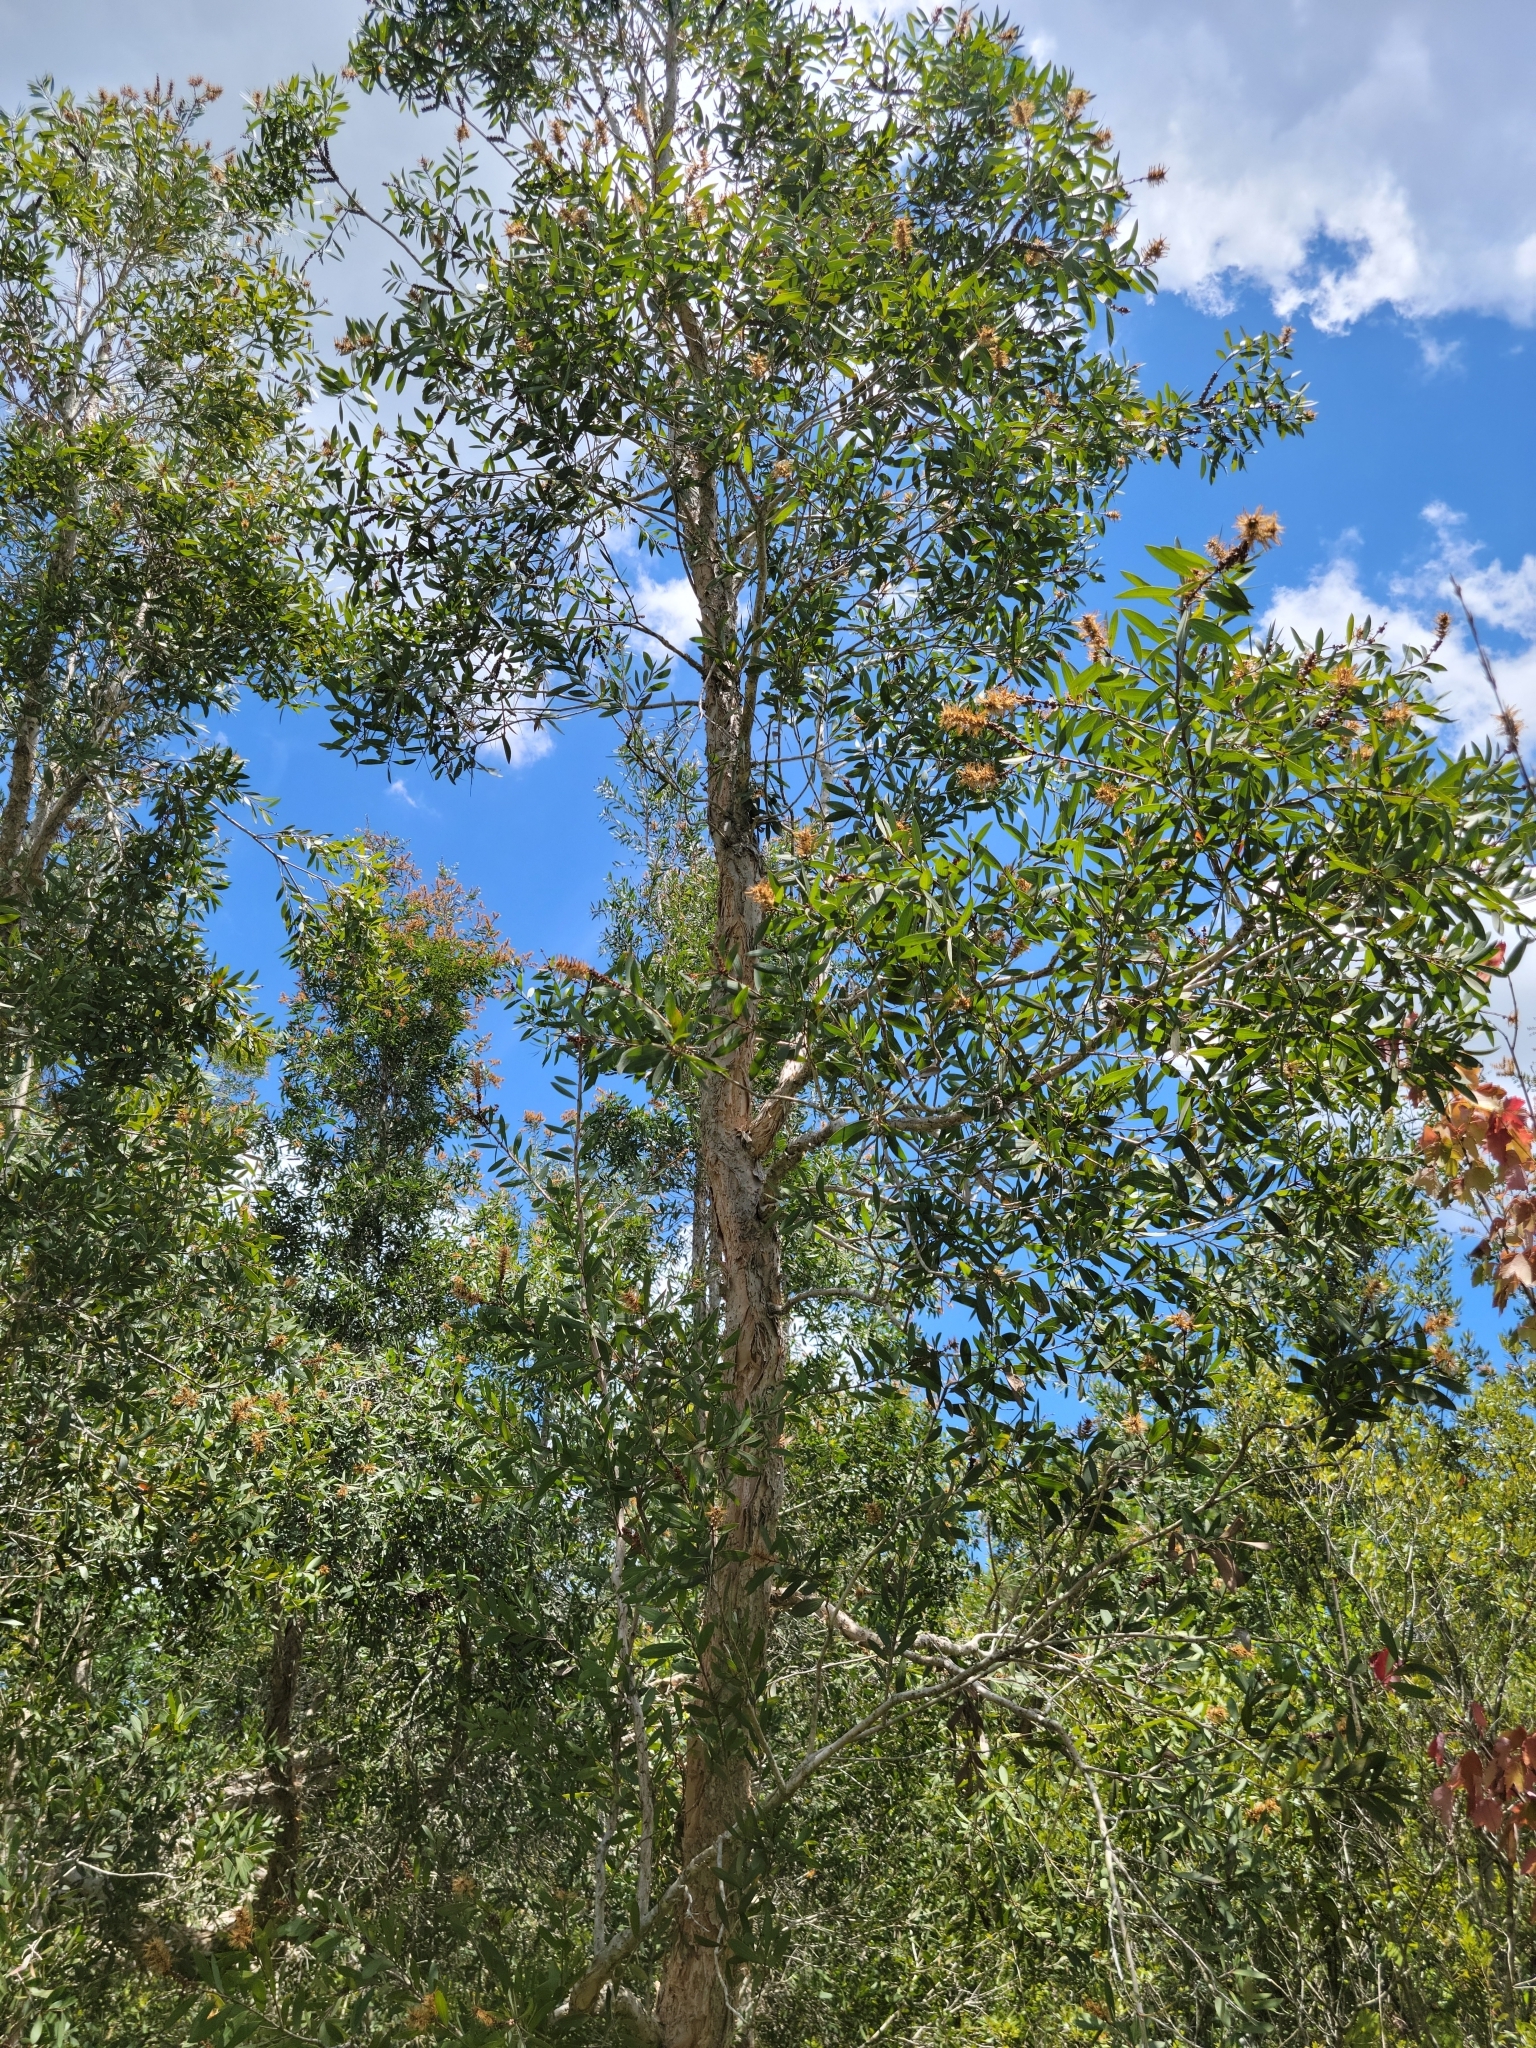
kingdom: Plantae
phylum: Tracheophyta
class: Magnoliopsida
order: Myrtales
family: Myrtaceae
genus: Melaleuca
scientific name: Melaleuca quinquenervia
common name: Punktree
